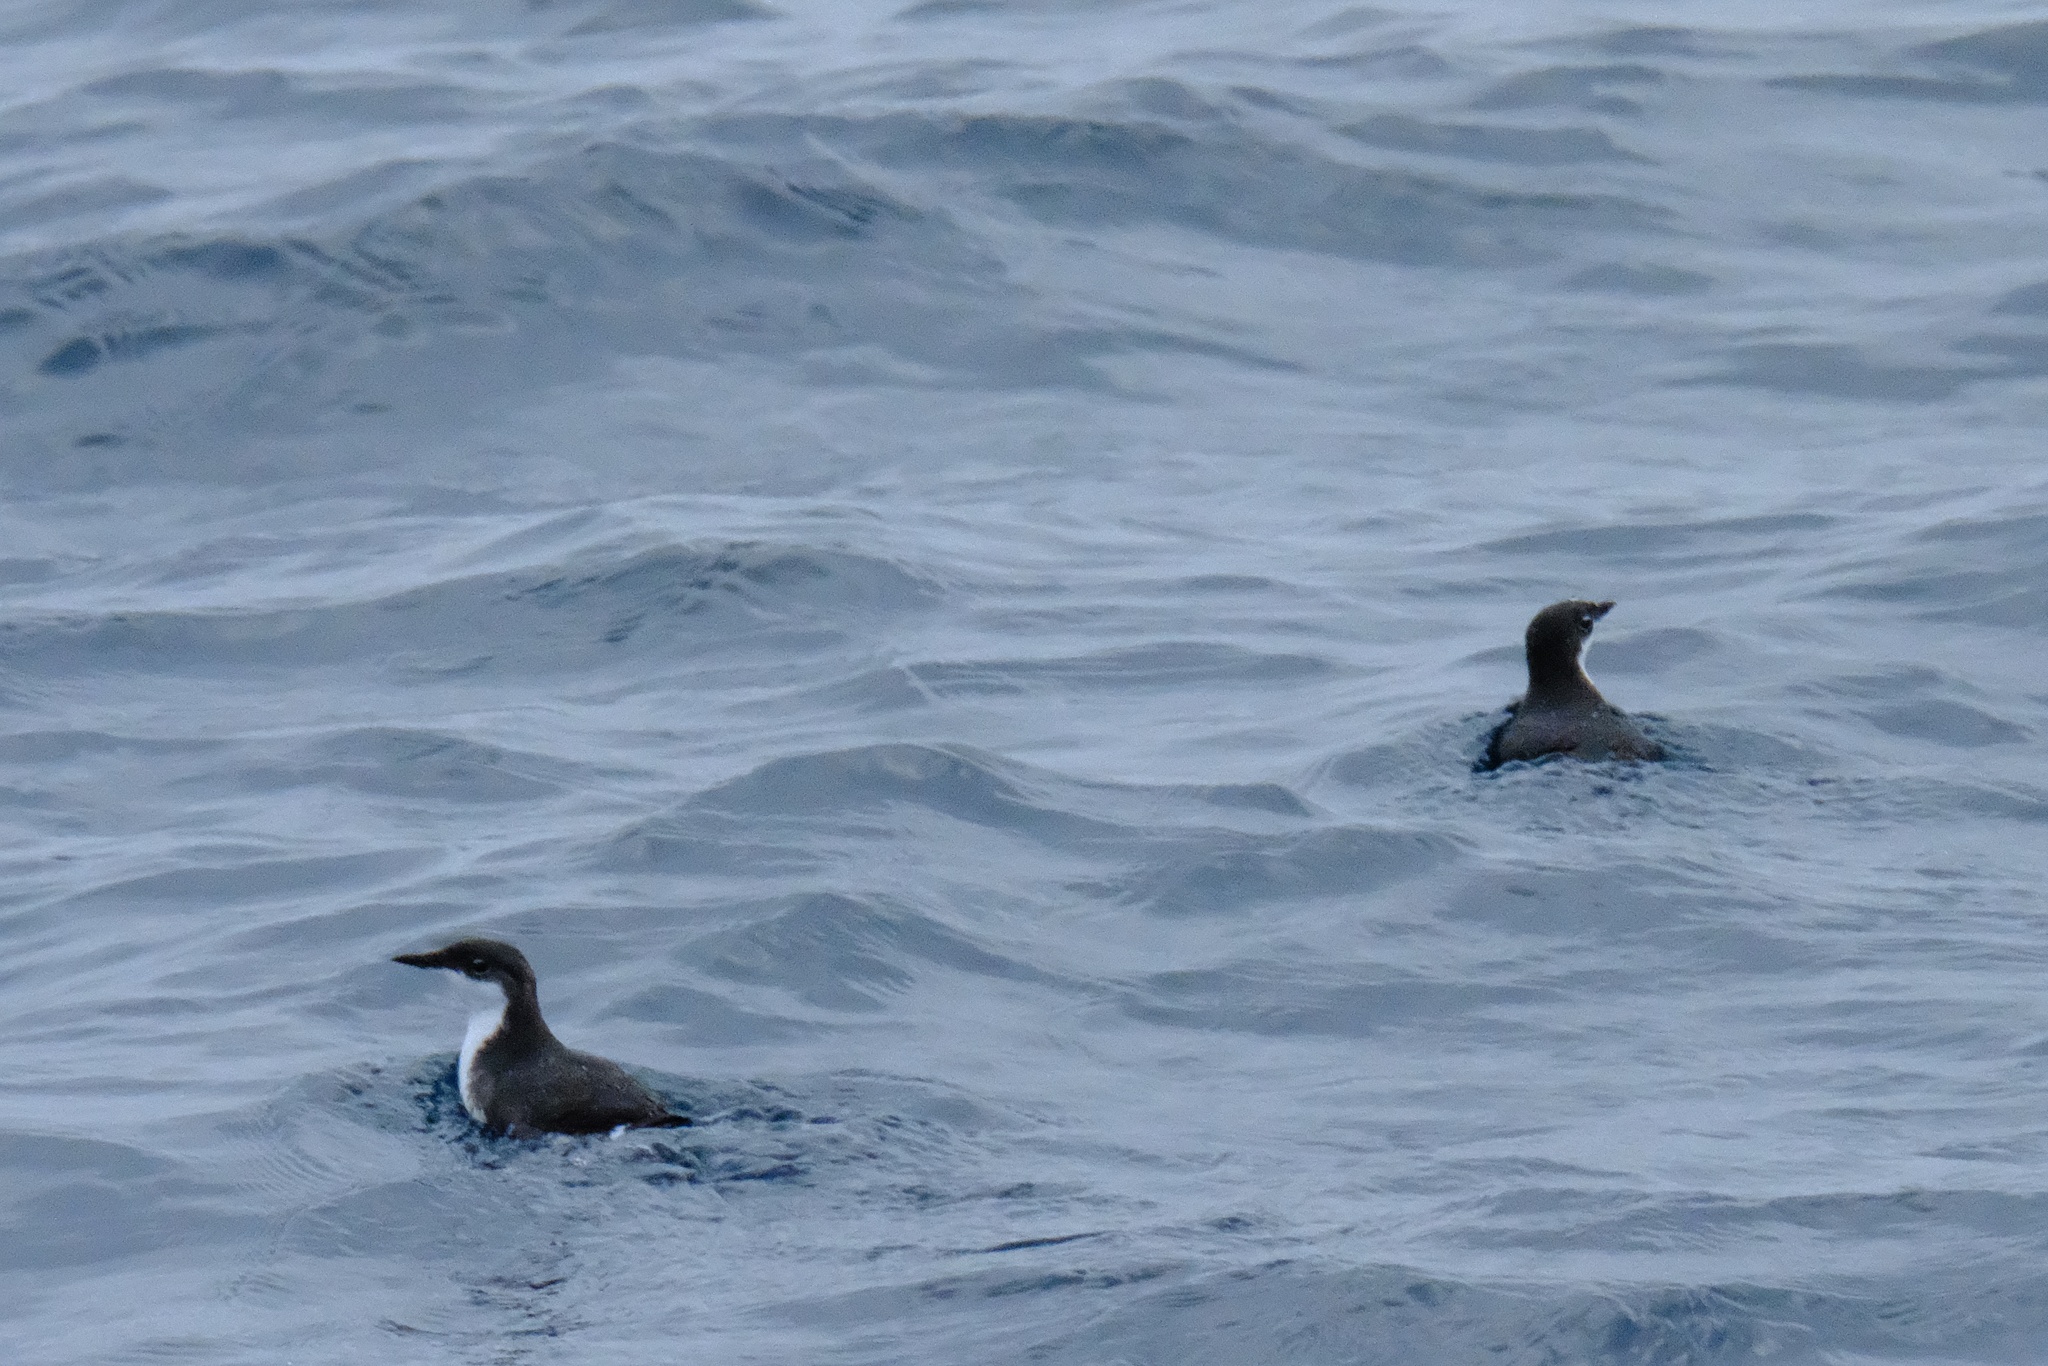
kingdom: Animalia
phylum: Chordata
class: Aves
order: Charadriiformes
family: Alcidae
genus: Synthliboramphus
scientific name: Synthliboramphus scrippsi
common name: Scripps's murrelet
